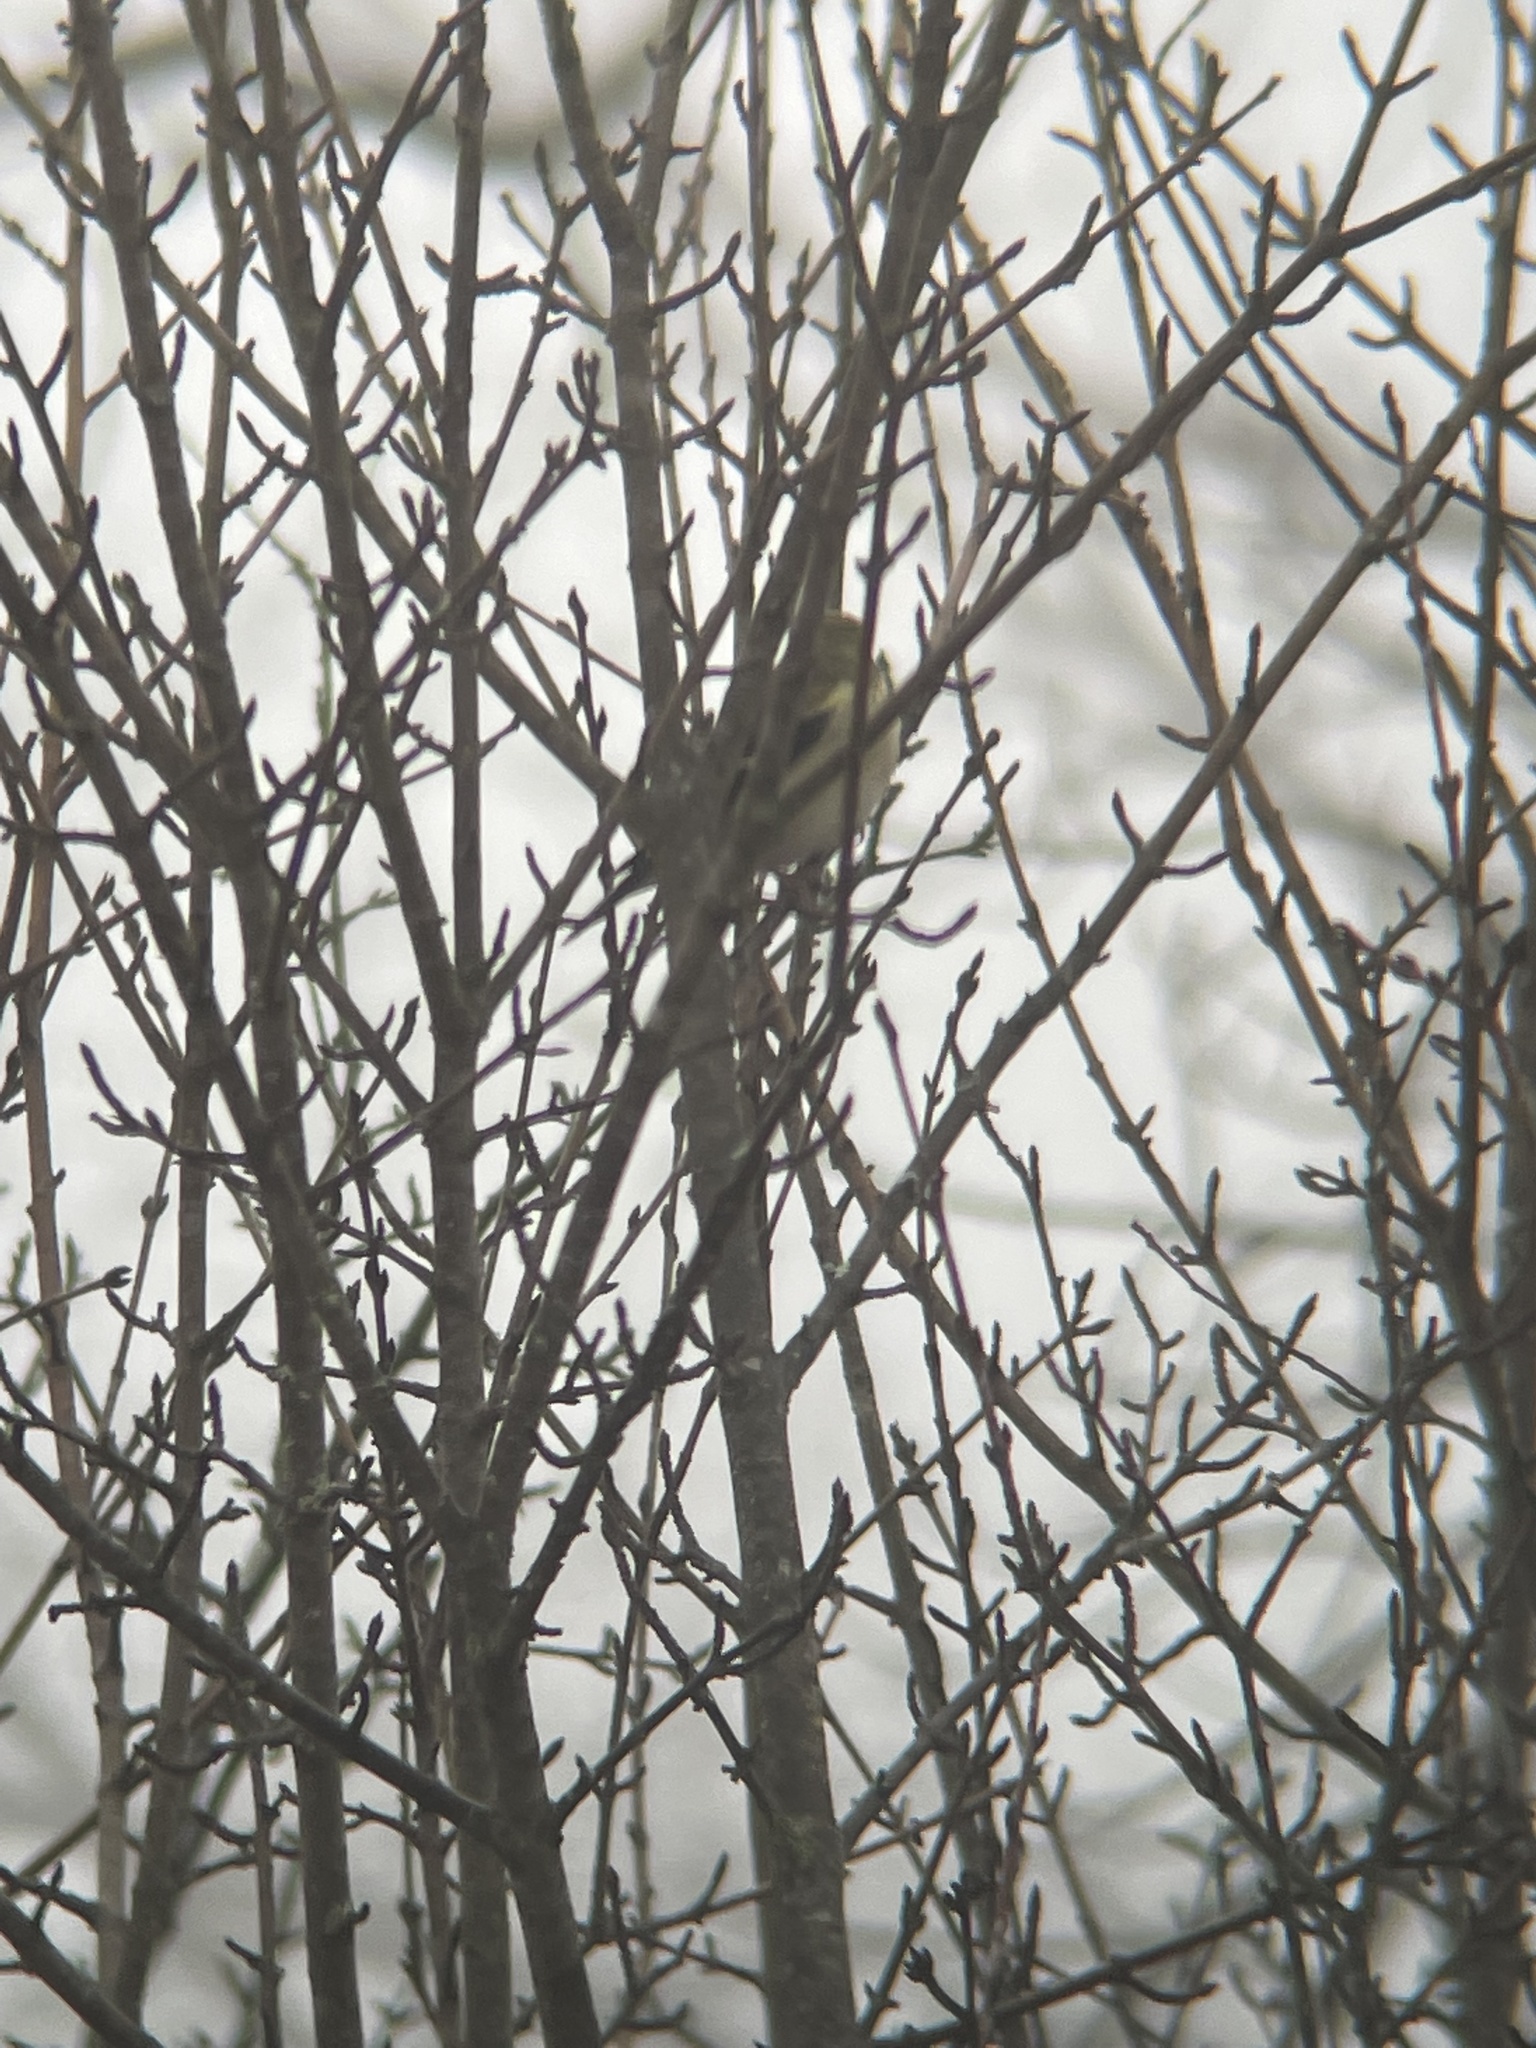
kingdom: Animalia
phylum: Chordata
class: Aves
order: Passeriformes
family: Fringillidae
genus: Spinus
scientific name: Spinus tristis
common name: American goldfinch
